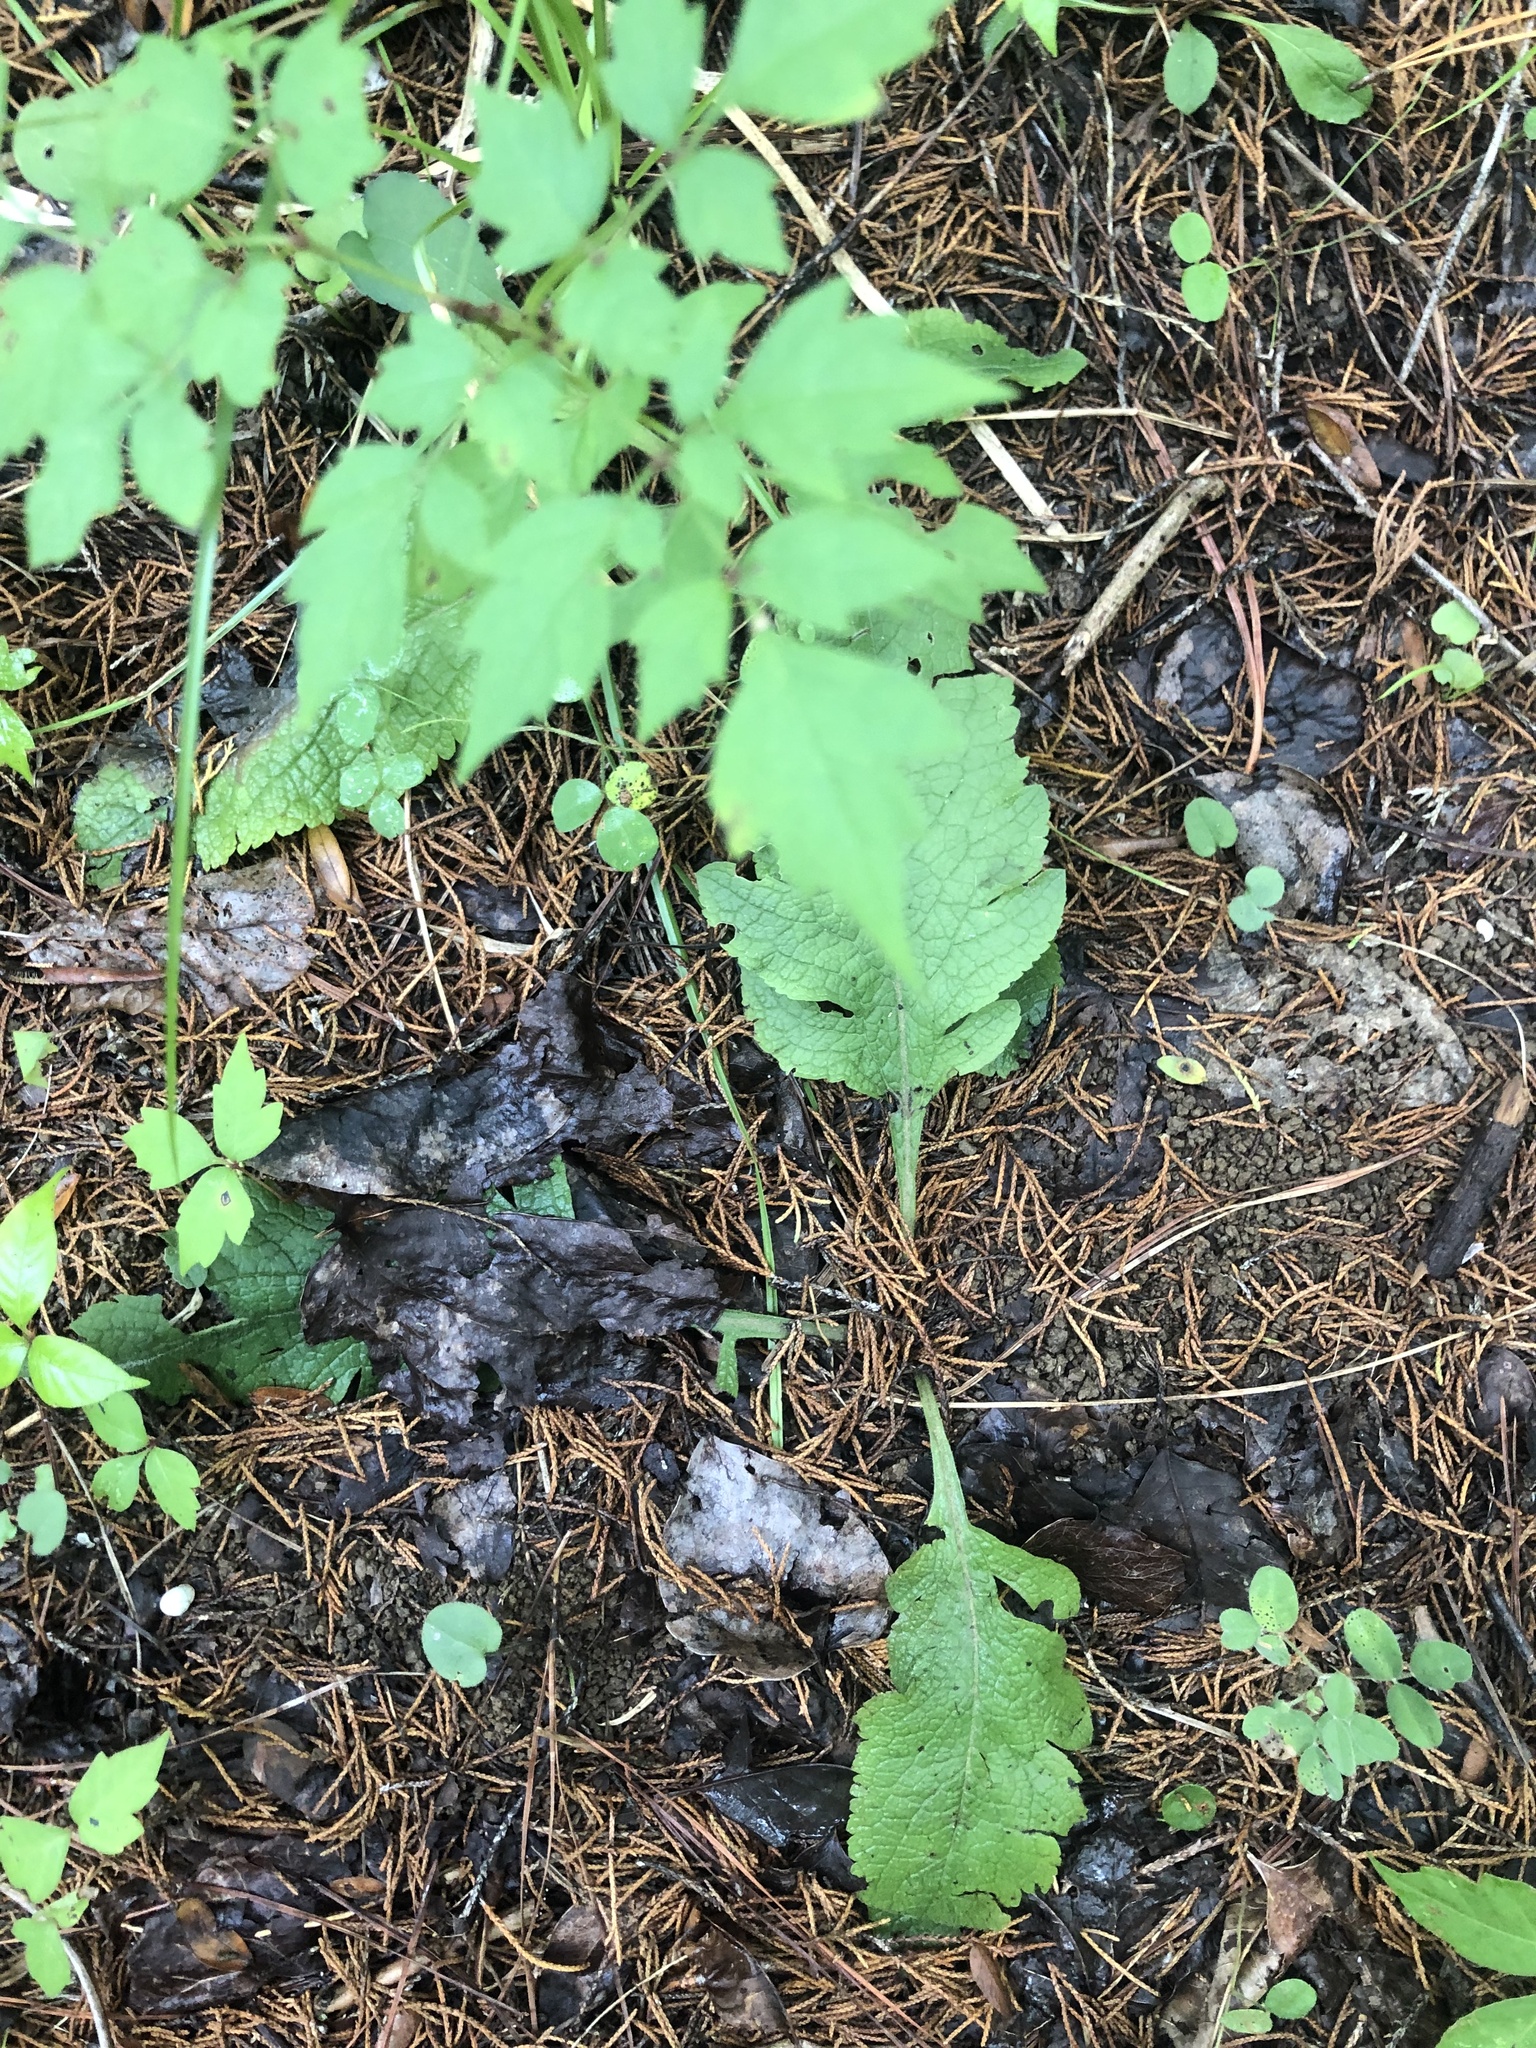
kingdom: Plantae
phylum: Tracheophyta
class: Magnoliopsida
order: Lamiales
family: Orobanchaceae
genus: Dasistoma
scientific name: Dasistoma macrophyllum
